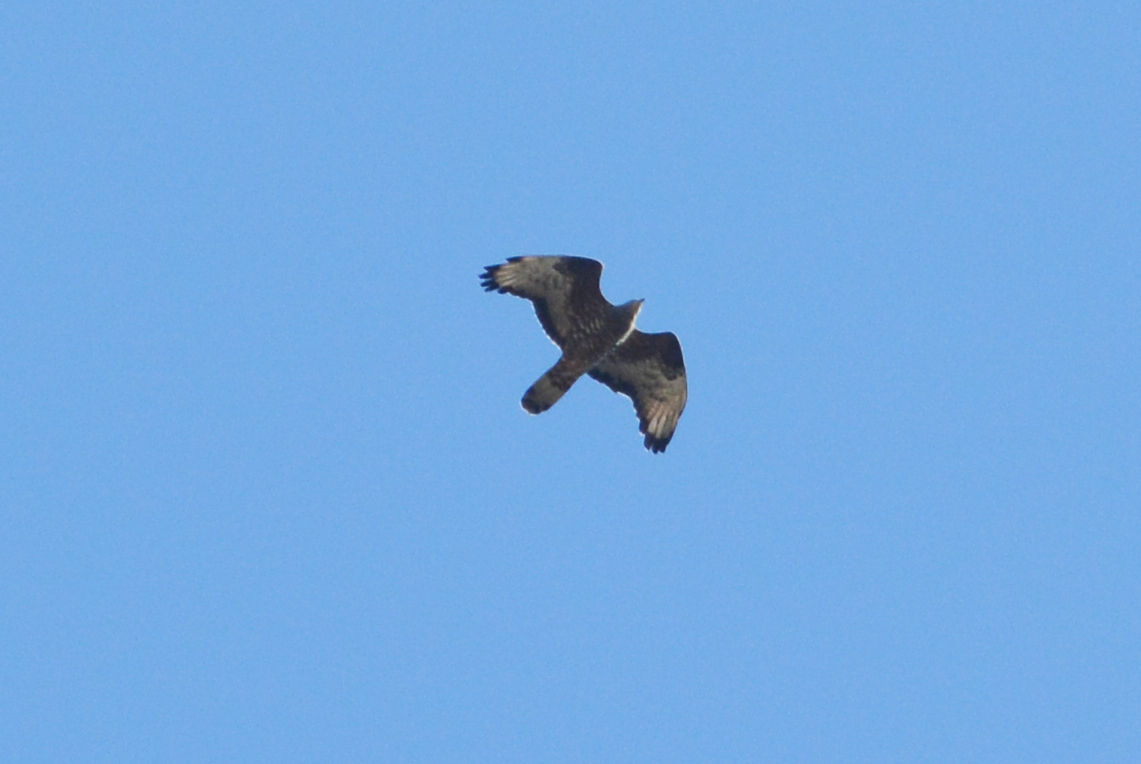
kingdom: Animalia
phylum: Chordata
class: Aves
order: Accipitriformes
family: Accipitridae
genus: Pernis
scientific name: Pernis apivorus
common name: European honey buzzard
